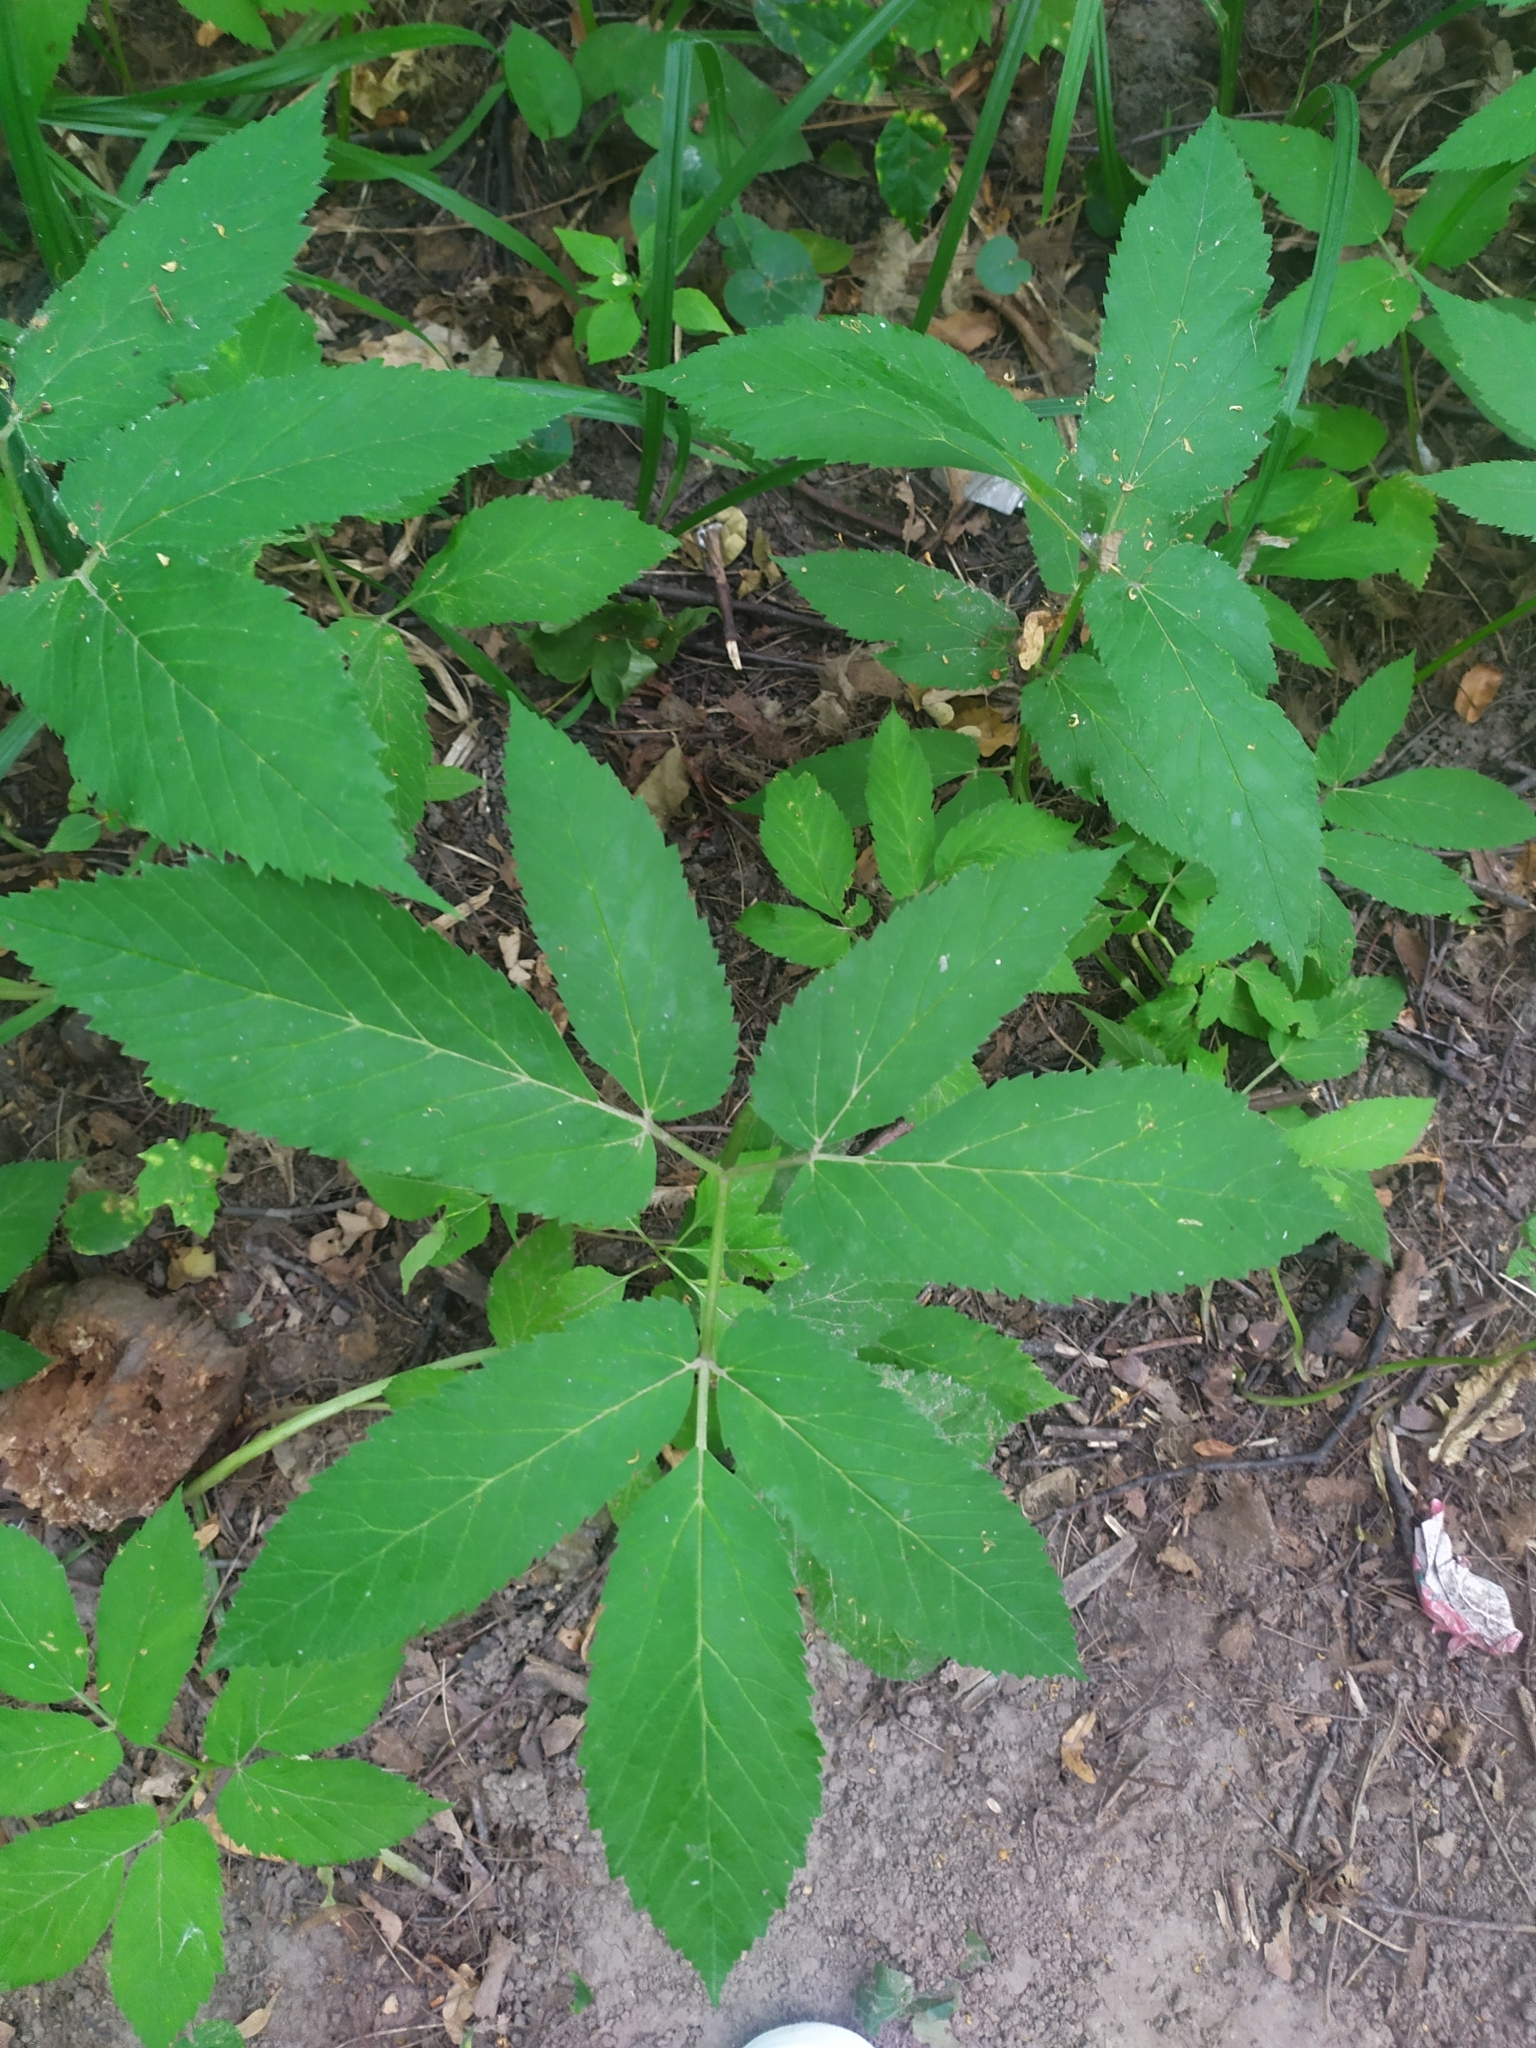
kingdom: Plantae
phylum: Tracheophyta
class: Magnoliopsida
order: Apiales
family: Apiaceae
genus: Aegopodium
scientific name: Aegopodium podagraria
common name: Ground-elder
